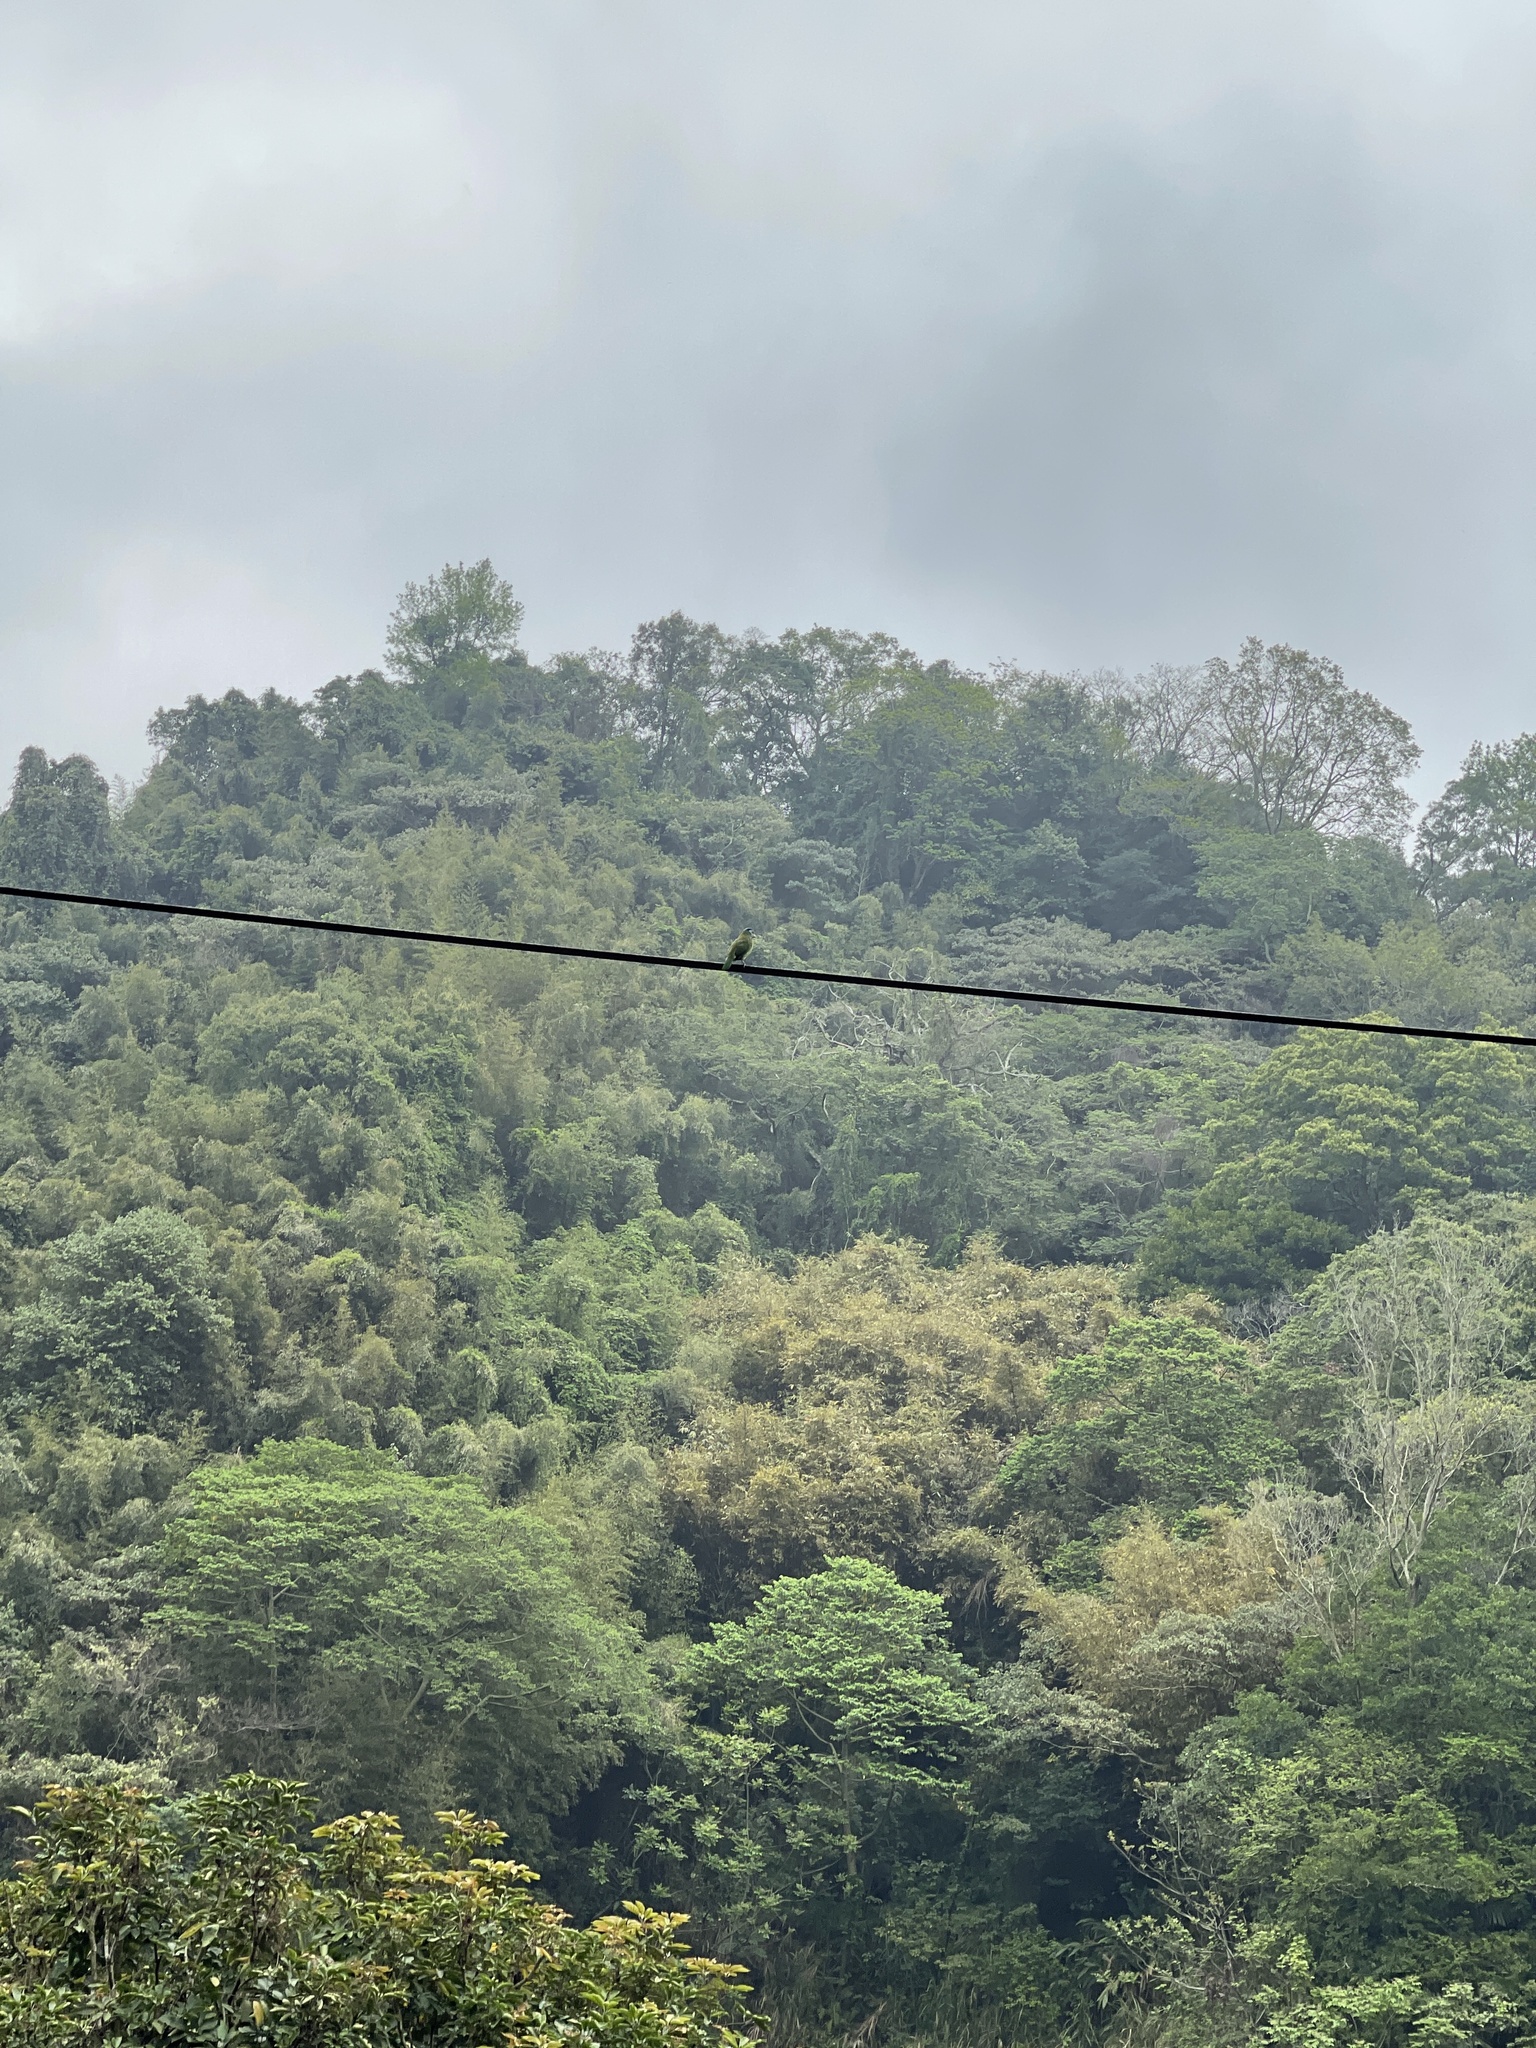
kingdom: Animalia
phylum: Chordata
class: Aves
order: Piciformes
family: Megalaimidae
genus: Psilopogon
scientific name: Psilopogon nuchalis
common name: Taiwan barbet
